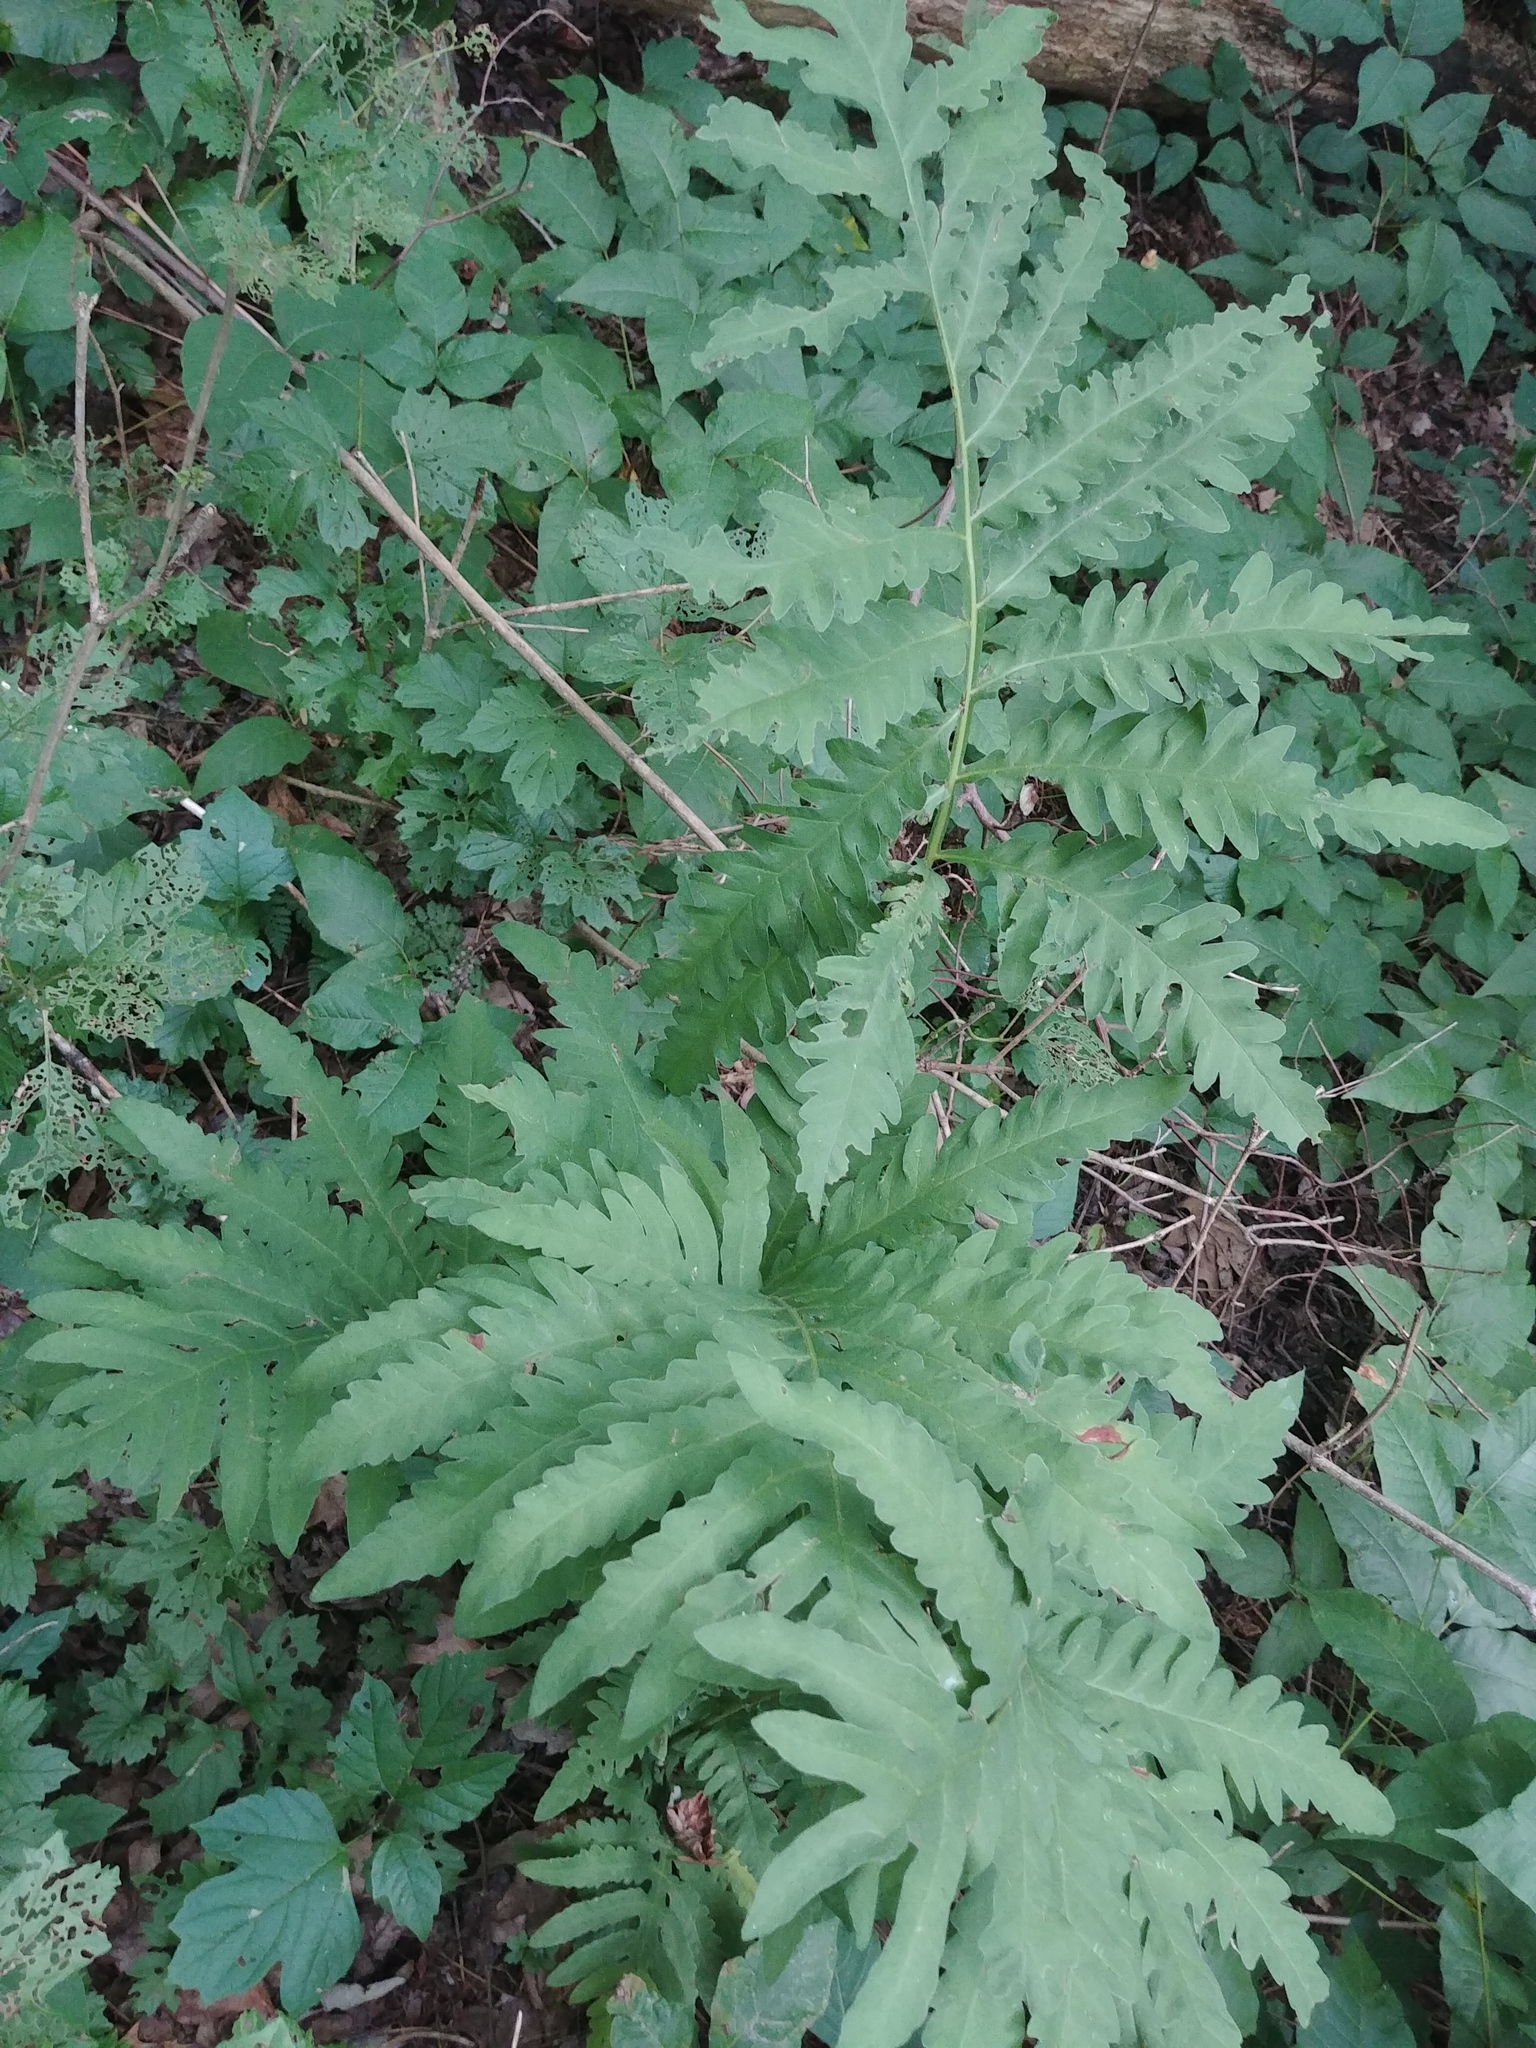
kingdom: Plantae
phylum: Tracheophyta
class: Polypodiopsida
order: Polypodiales
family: Onocleaceae
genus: Onoclea
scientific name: Onoclea sensibilis
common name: Sensitive fern
